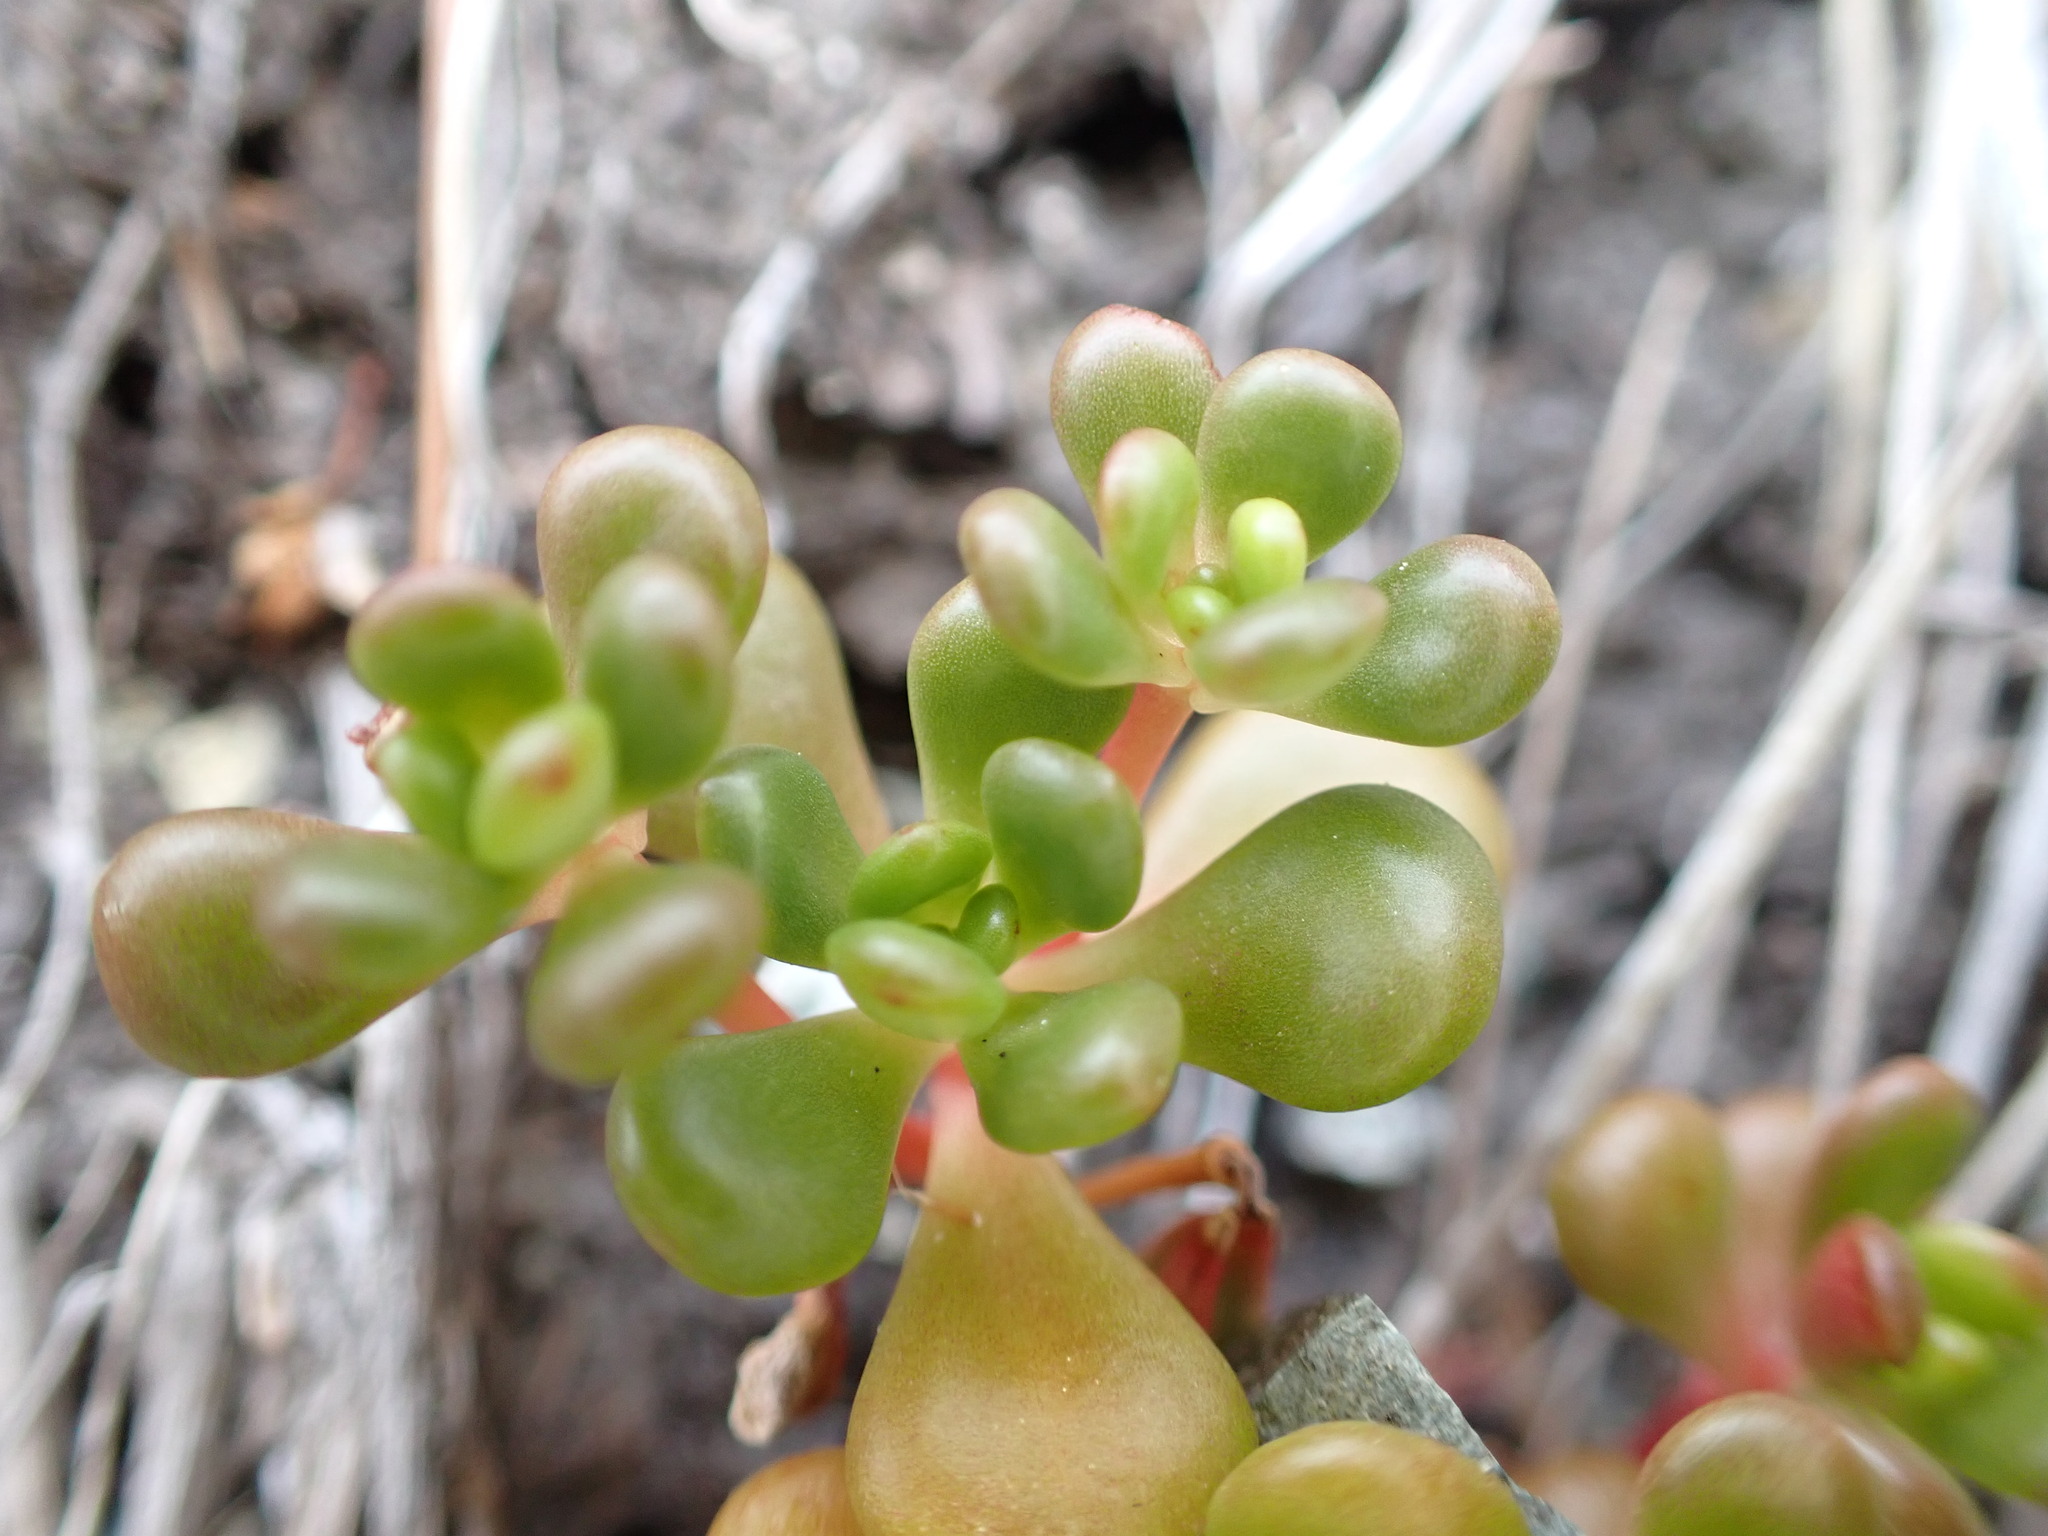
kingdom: Plantae
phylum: Tracheophyta
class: Magnoliopsida
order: Saxifragales
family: Crassulaceae
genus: Sedum
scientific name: Sedum oreganum
